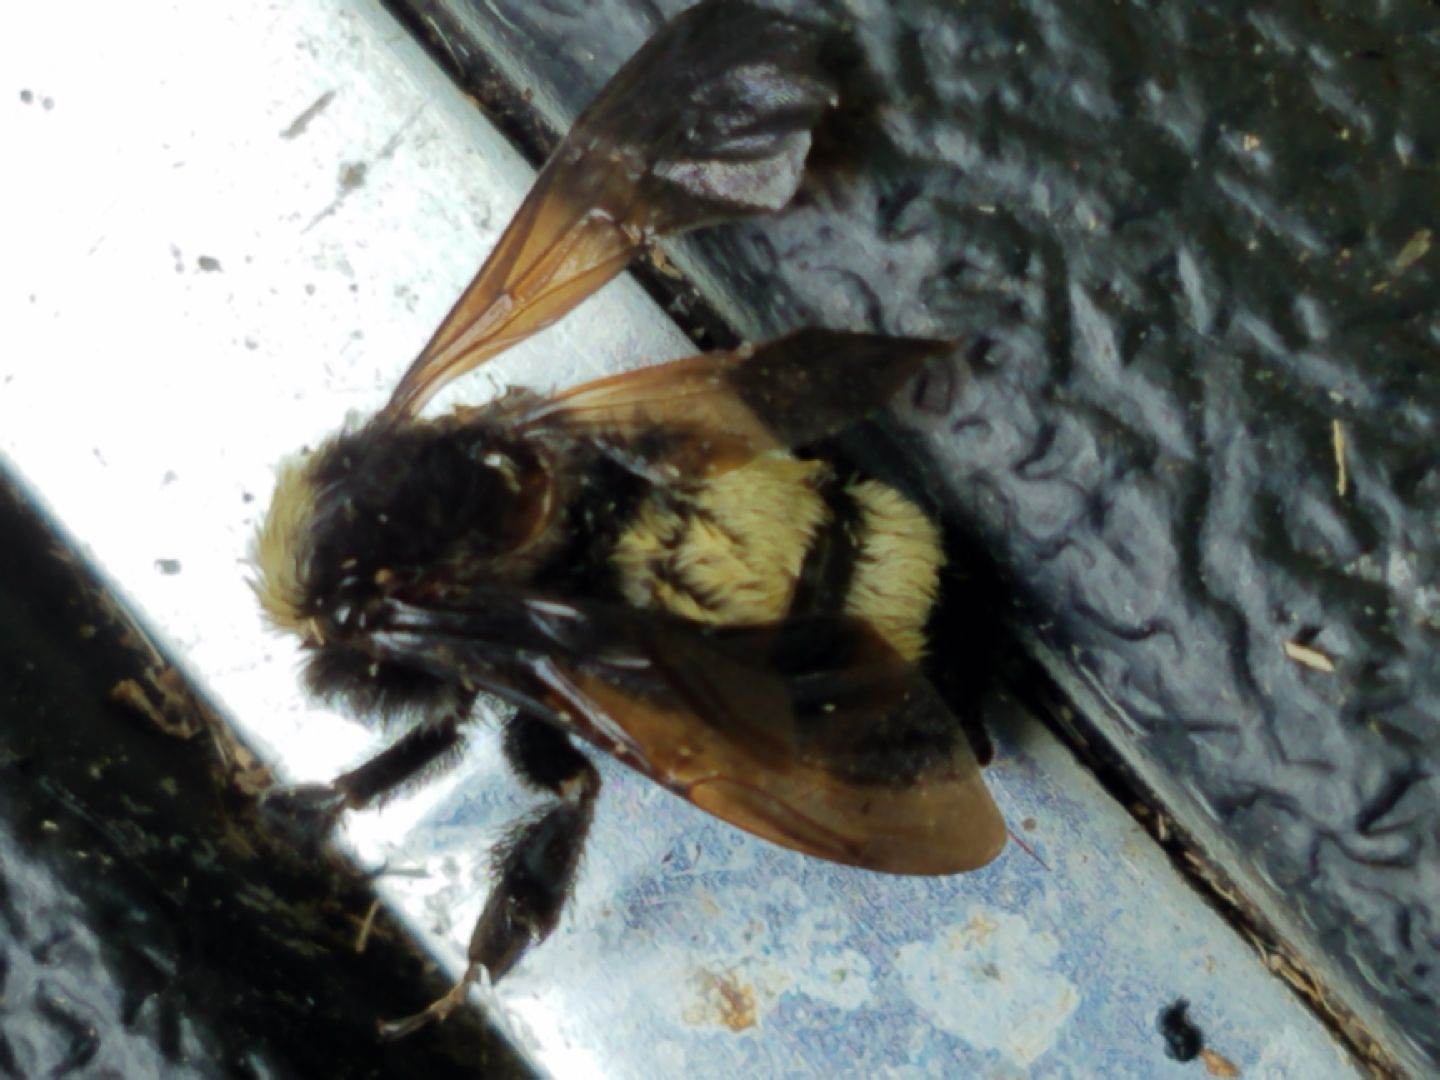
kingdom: Animalia
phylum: Arthropoda
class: Insecta
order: Hymenoptera
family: Apidae
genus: Bombus
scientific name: Bombus pensylvanicus
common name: Bumble bee
